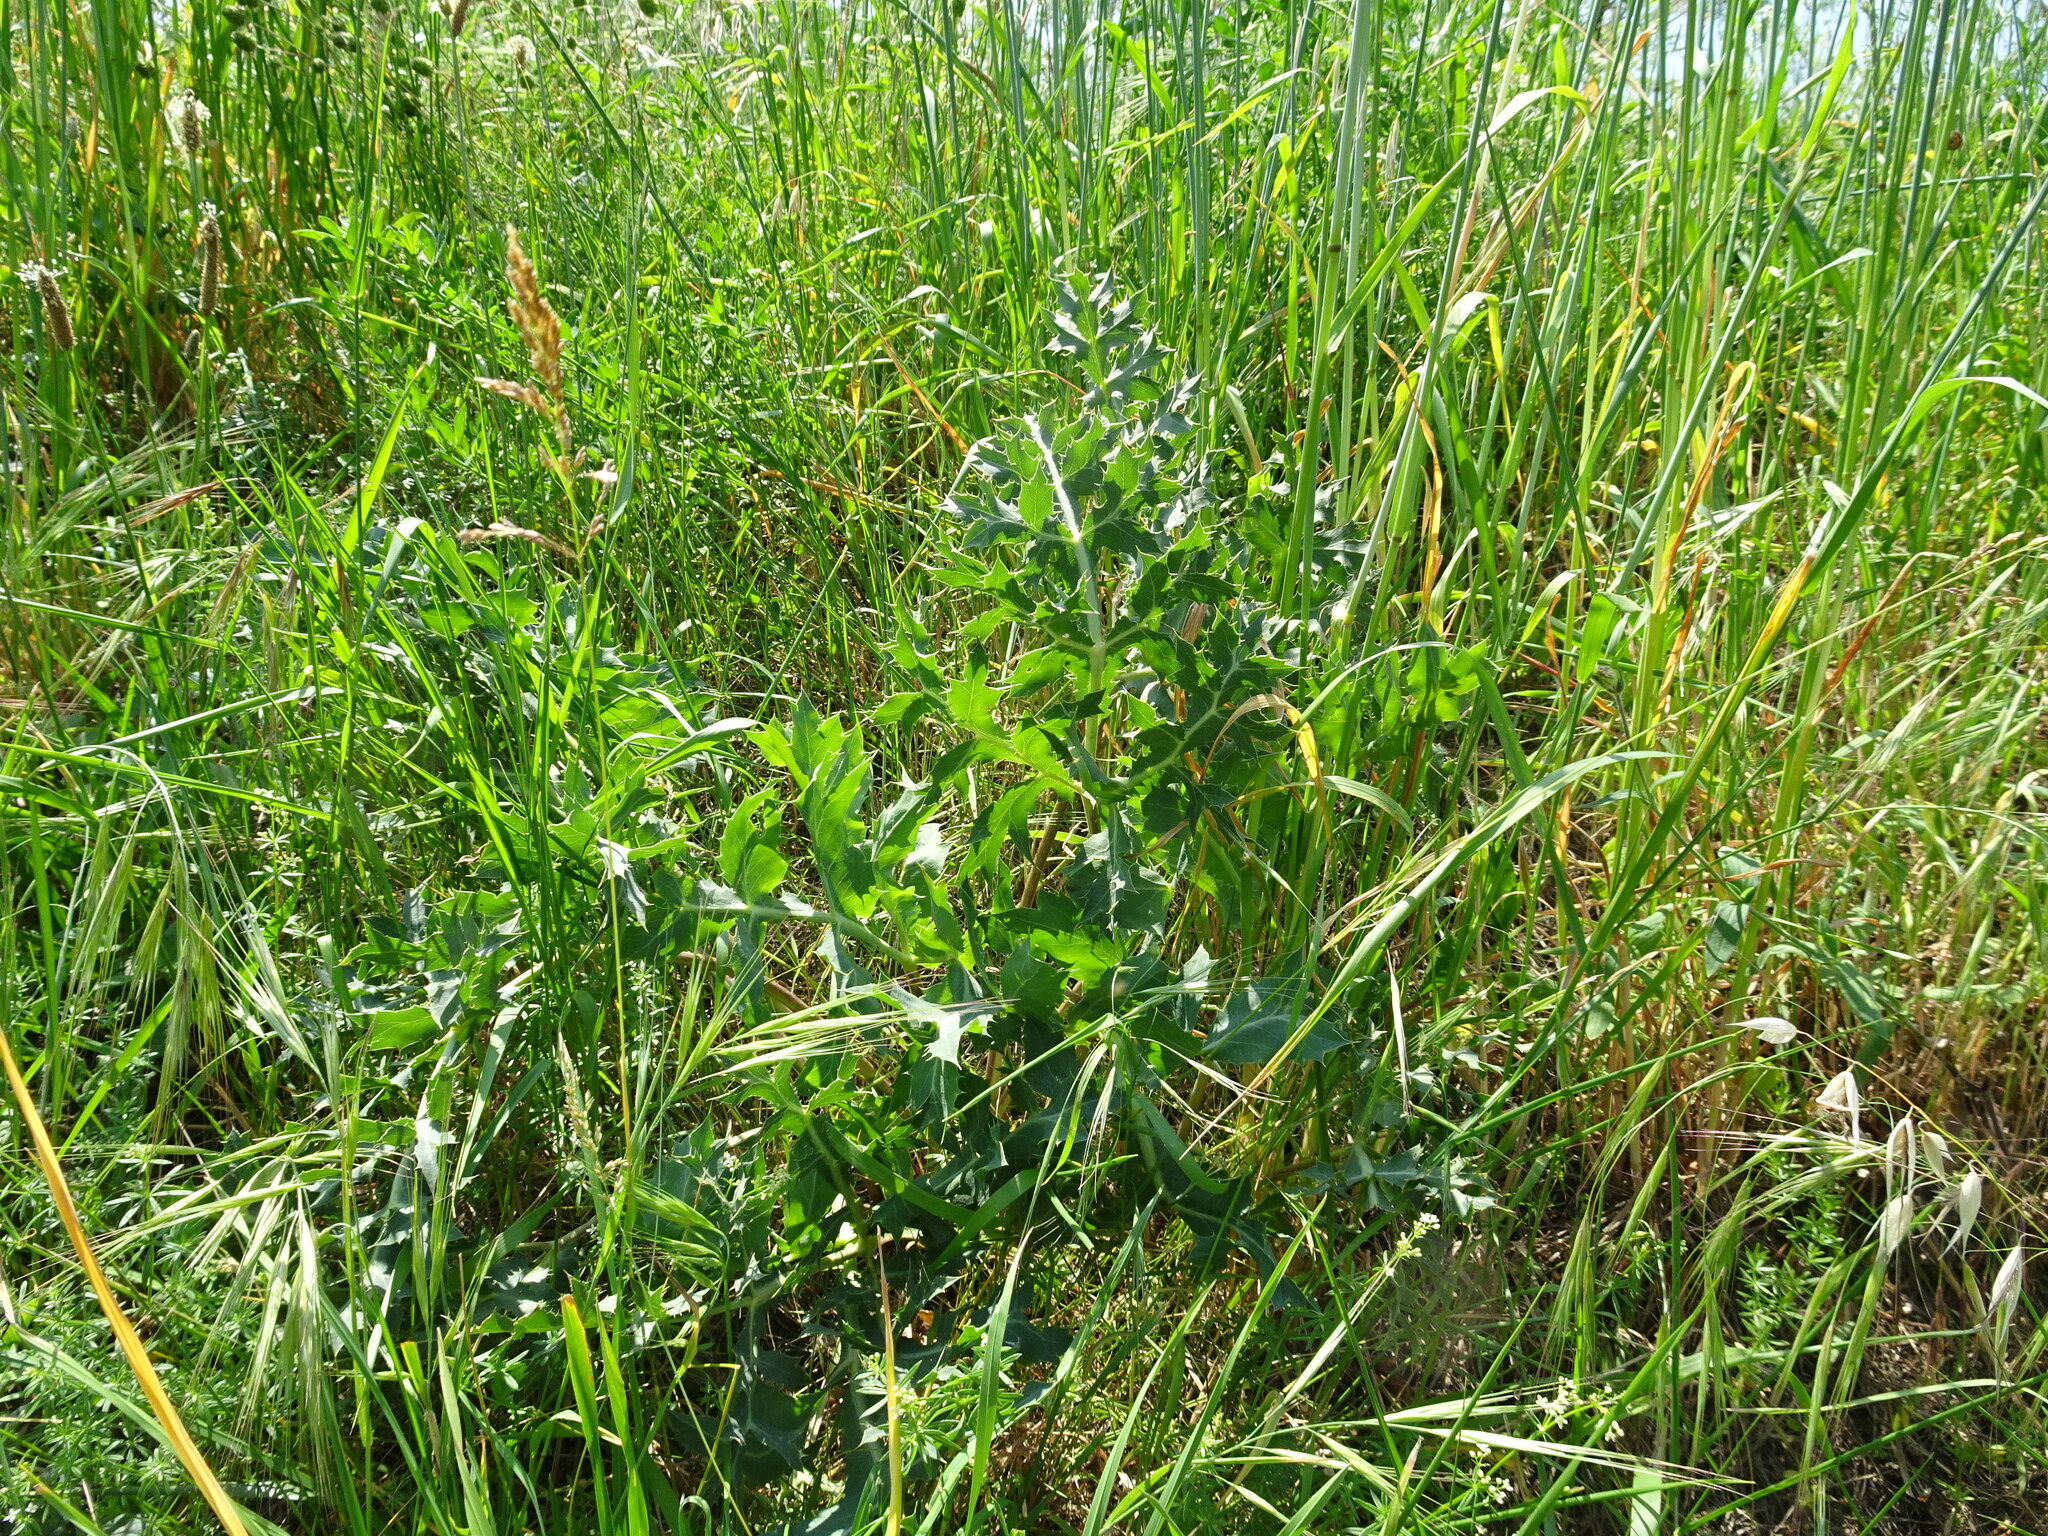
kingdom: Plantae
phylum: Tracheophyta
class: Magnoliopsida
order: Apiales
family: Apiaceae
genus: Eryngium
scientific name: Eryngium campestre
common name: Field eryngo
